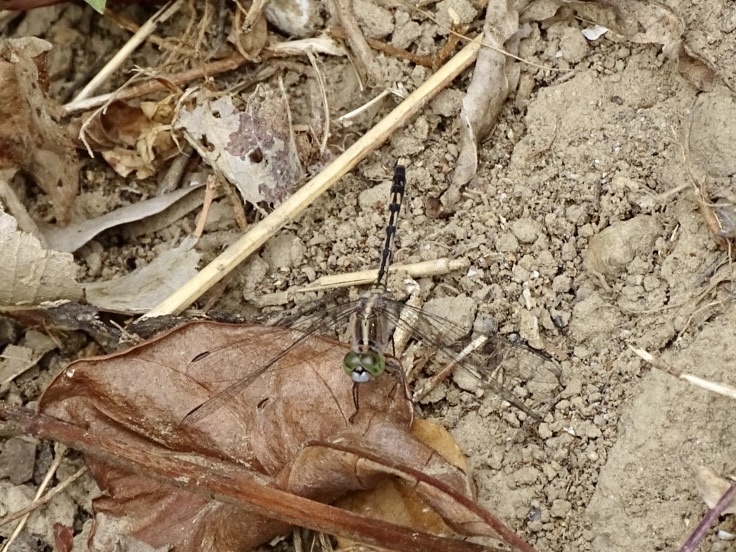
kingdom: Animalia
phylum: Arthropoda
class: Insecta
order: Odonata
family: Libellulidae
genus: Diplacodes
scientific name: Diplacodes trivialis
